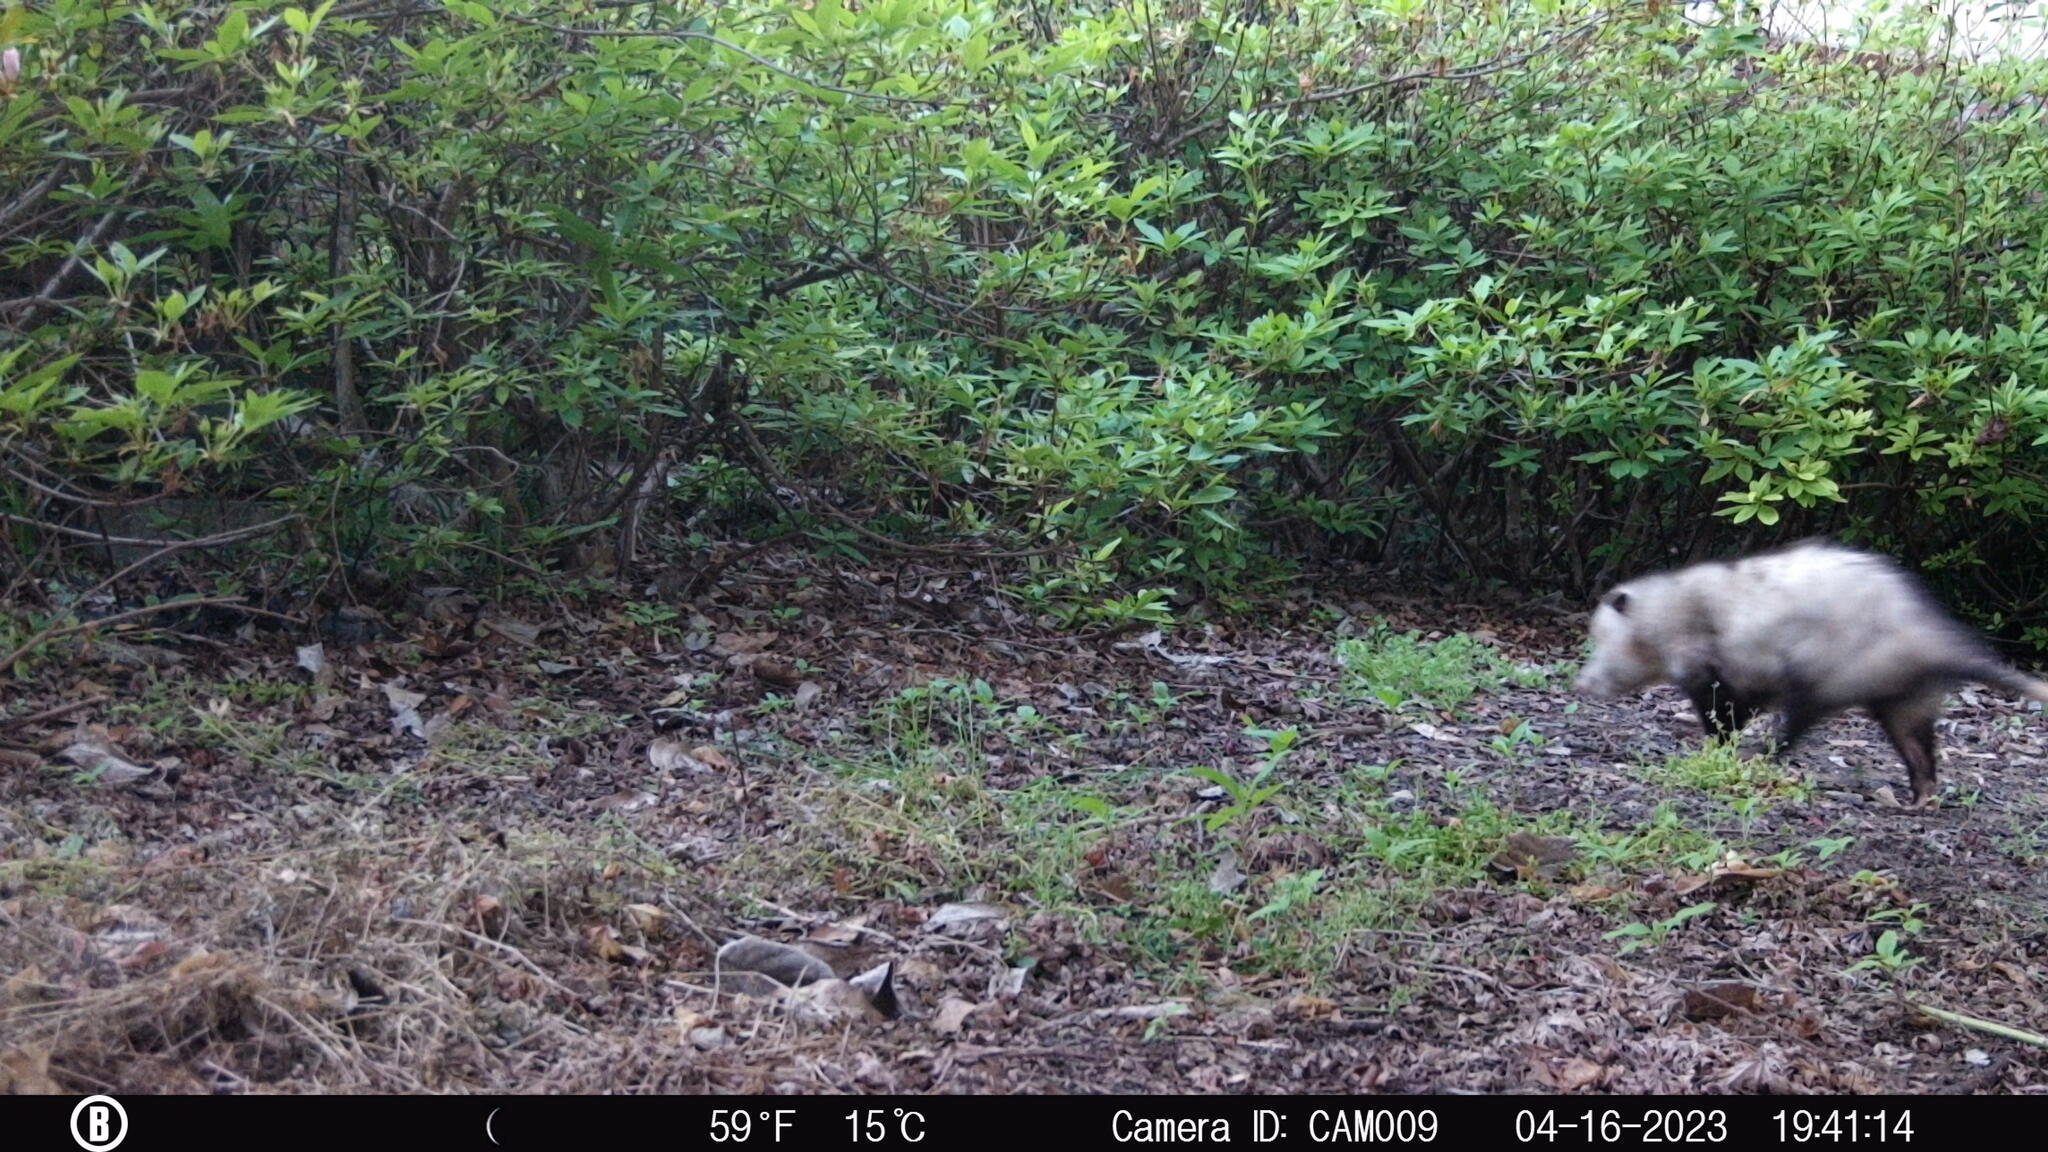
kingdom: Animalia
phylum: Chordata
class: Mammalia
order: Didelphimorphia
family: Didelphidae
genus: Didelphis
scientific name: Didelphis virginiana
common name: Virginia opossum
